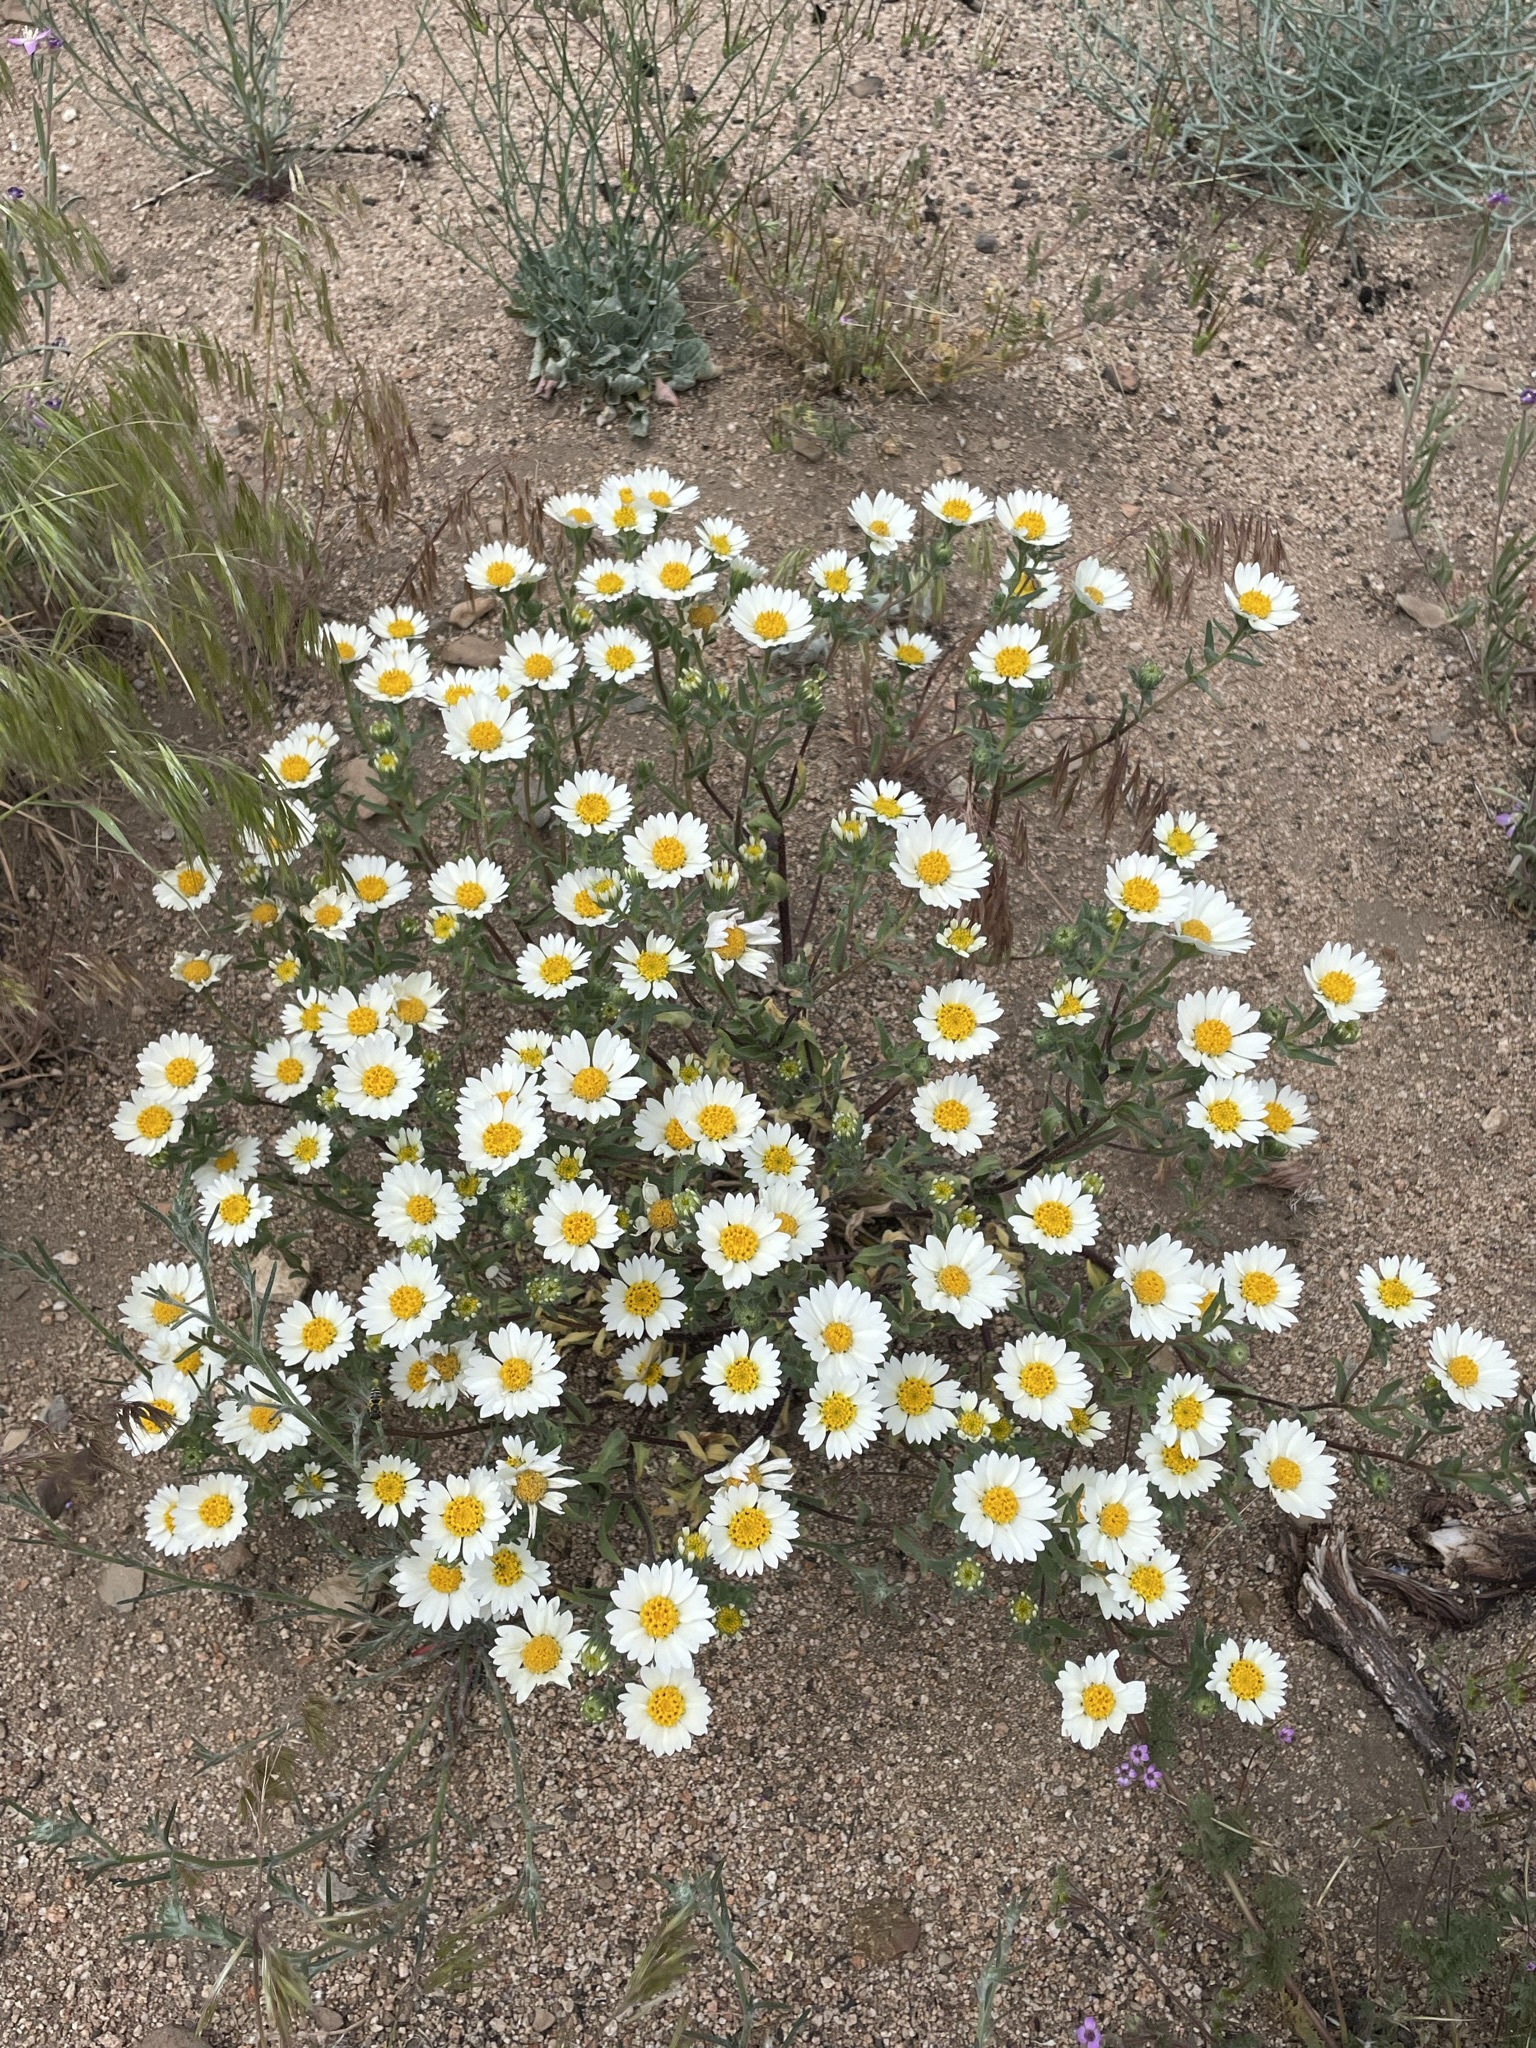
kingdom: Plantae
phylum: Tracheophyta
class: Magnoliopsida
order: Asterales
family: Asteraceae
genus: Layia
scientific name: Layia glandulosa
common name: White layia
